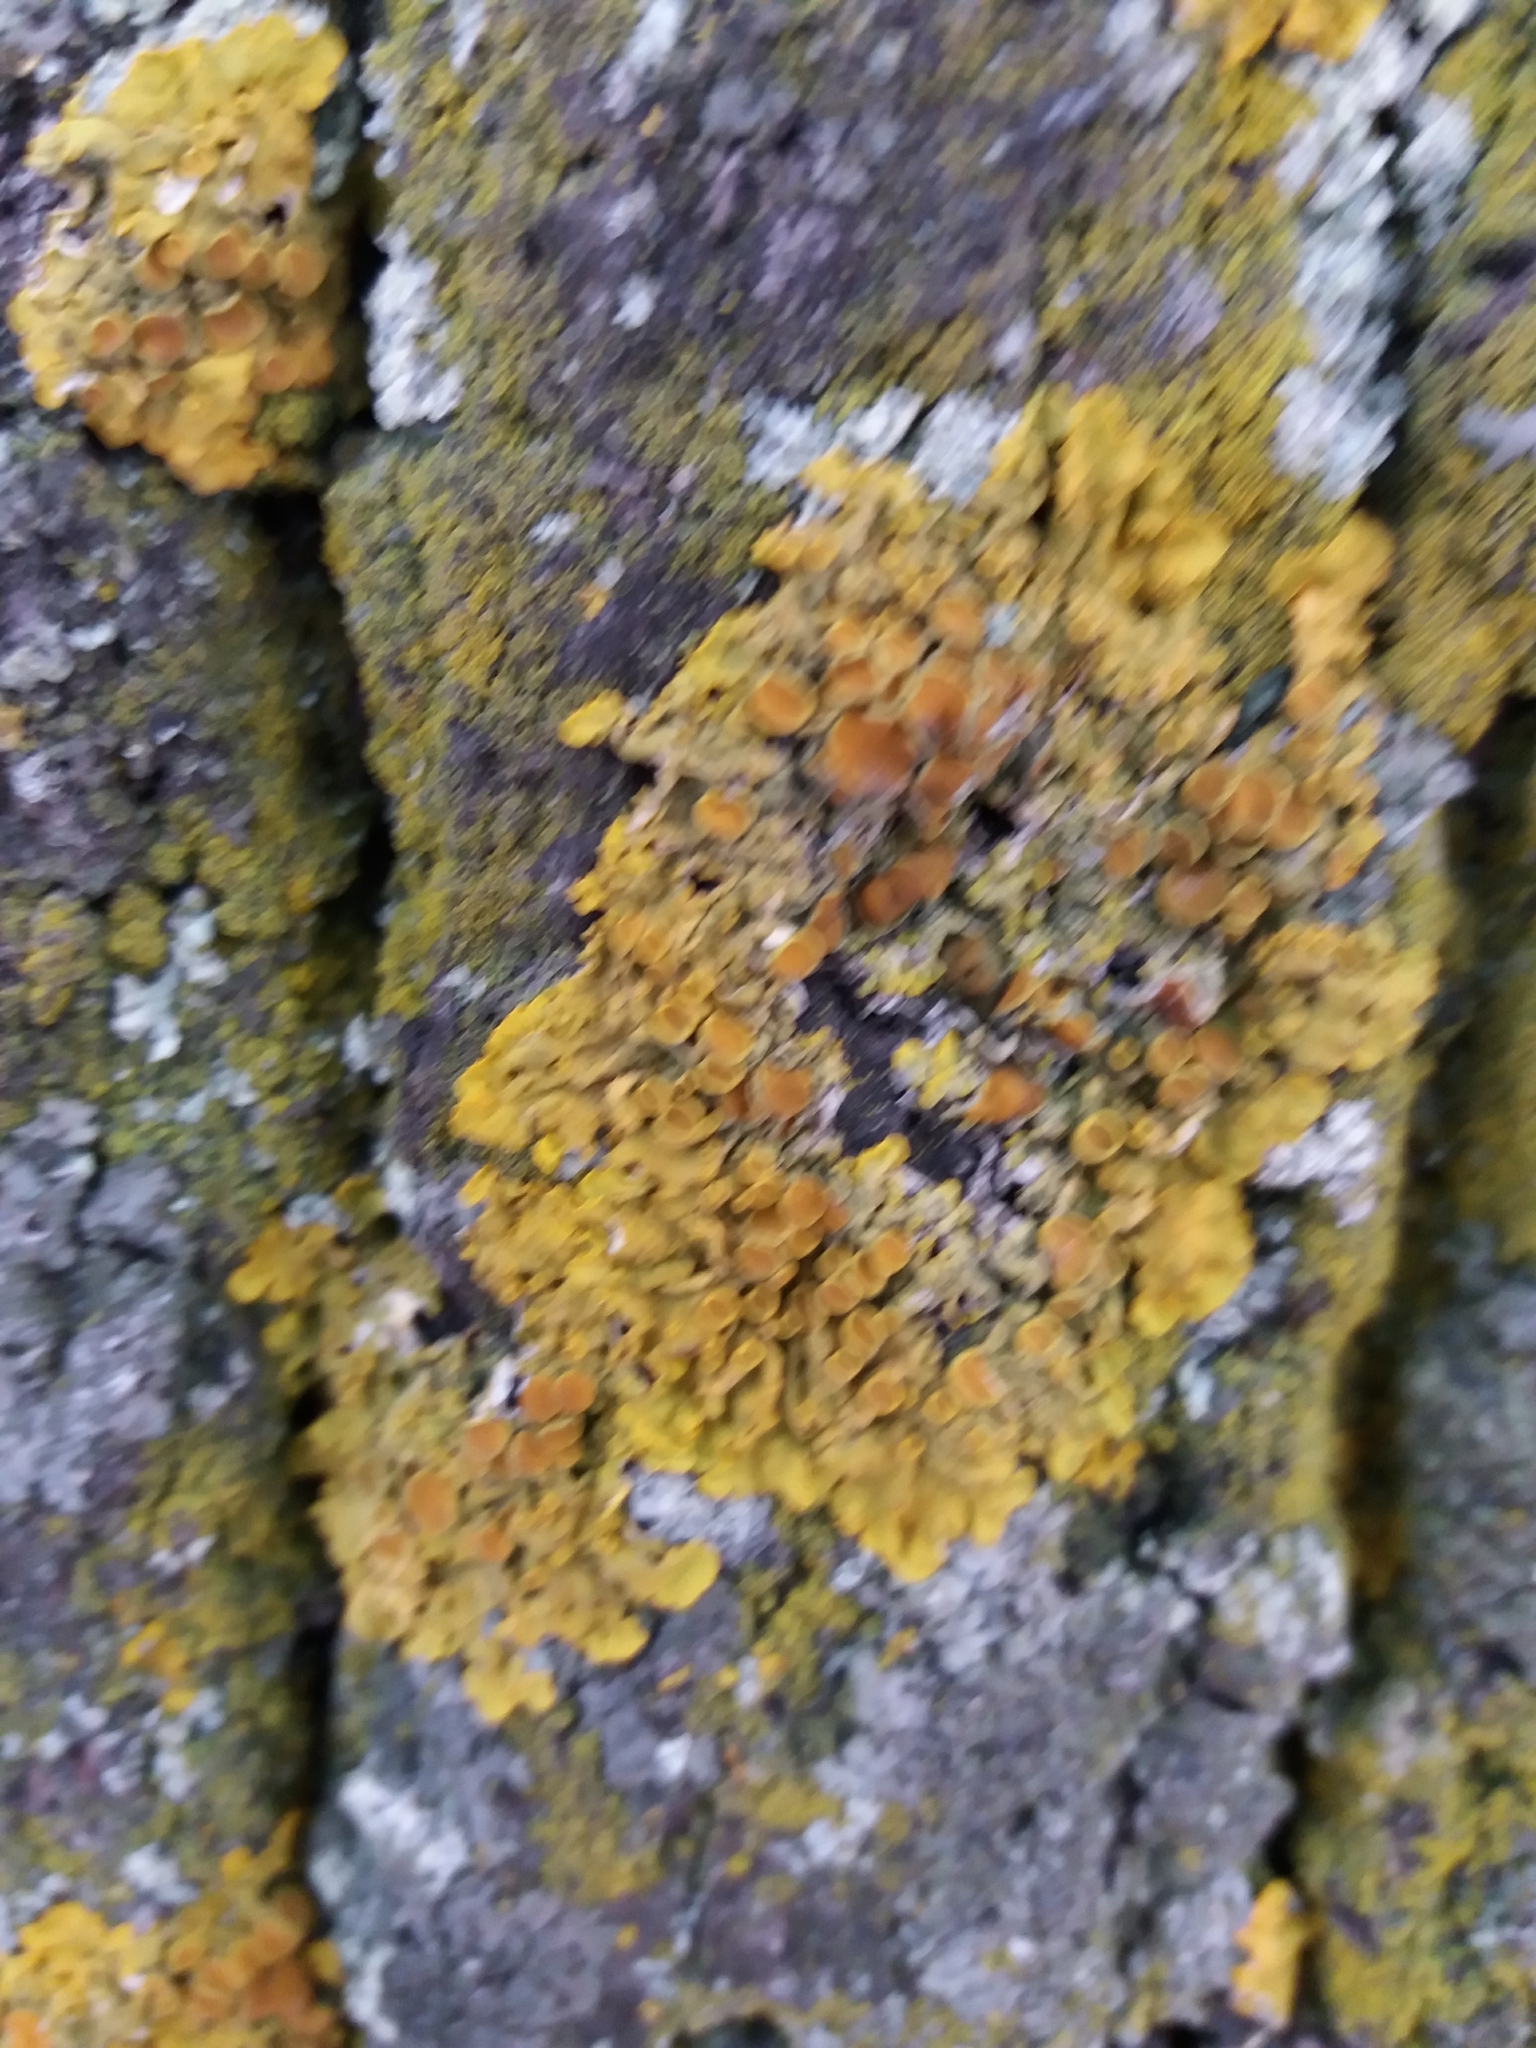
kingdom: Fungi
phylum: Ascomycota
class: Lecanoromycetes
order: Teloschistales
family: Teloschistaceae
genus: Xanthoria
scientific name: Xanthoria parietina
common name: Common orange lichen
